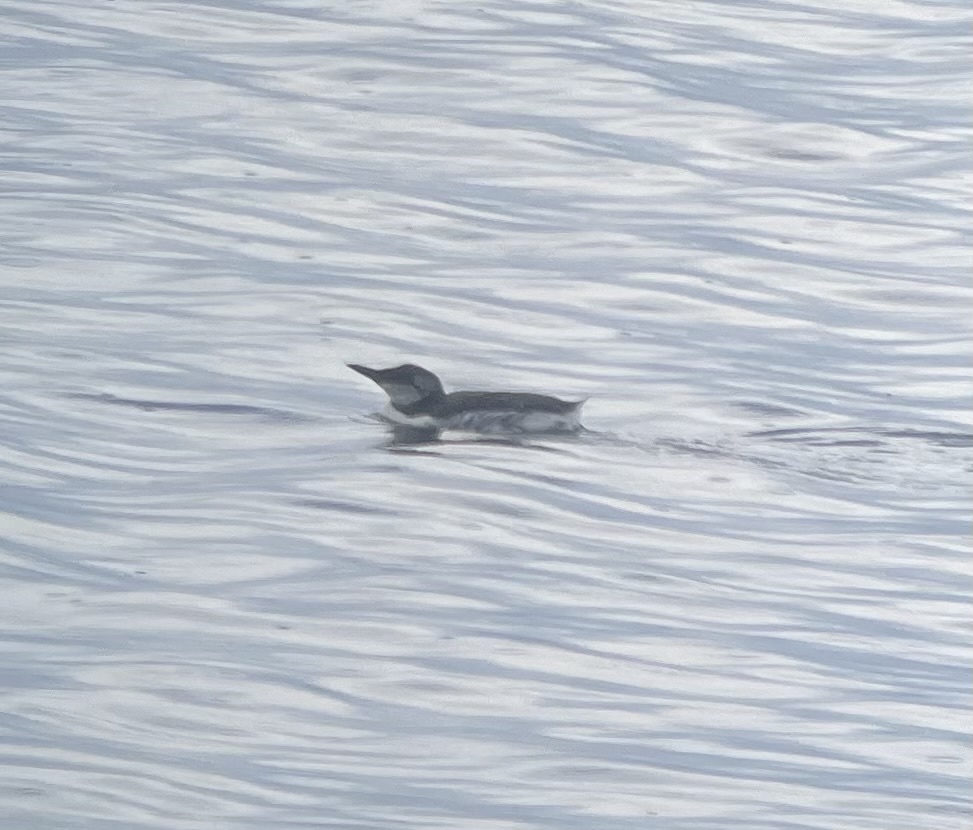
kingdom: Animalia
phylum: Chordata
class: Aves
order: Charadriiformes
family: Alcidae
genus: Uria
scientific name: Uria aalge
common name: Common murre
